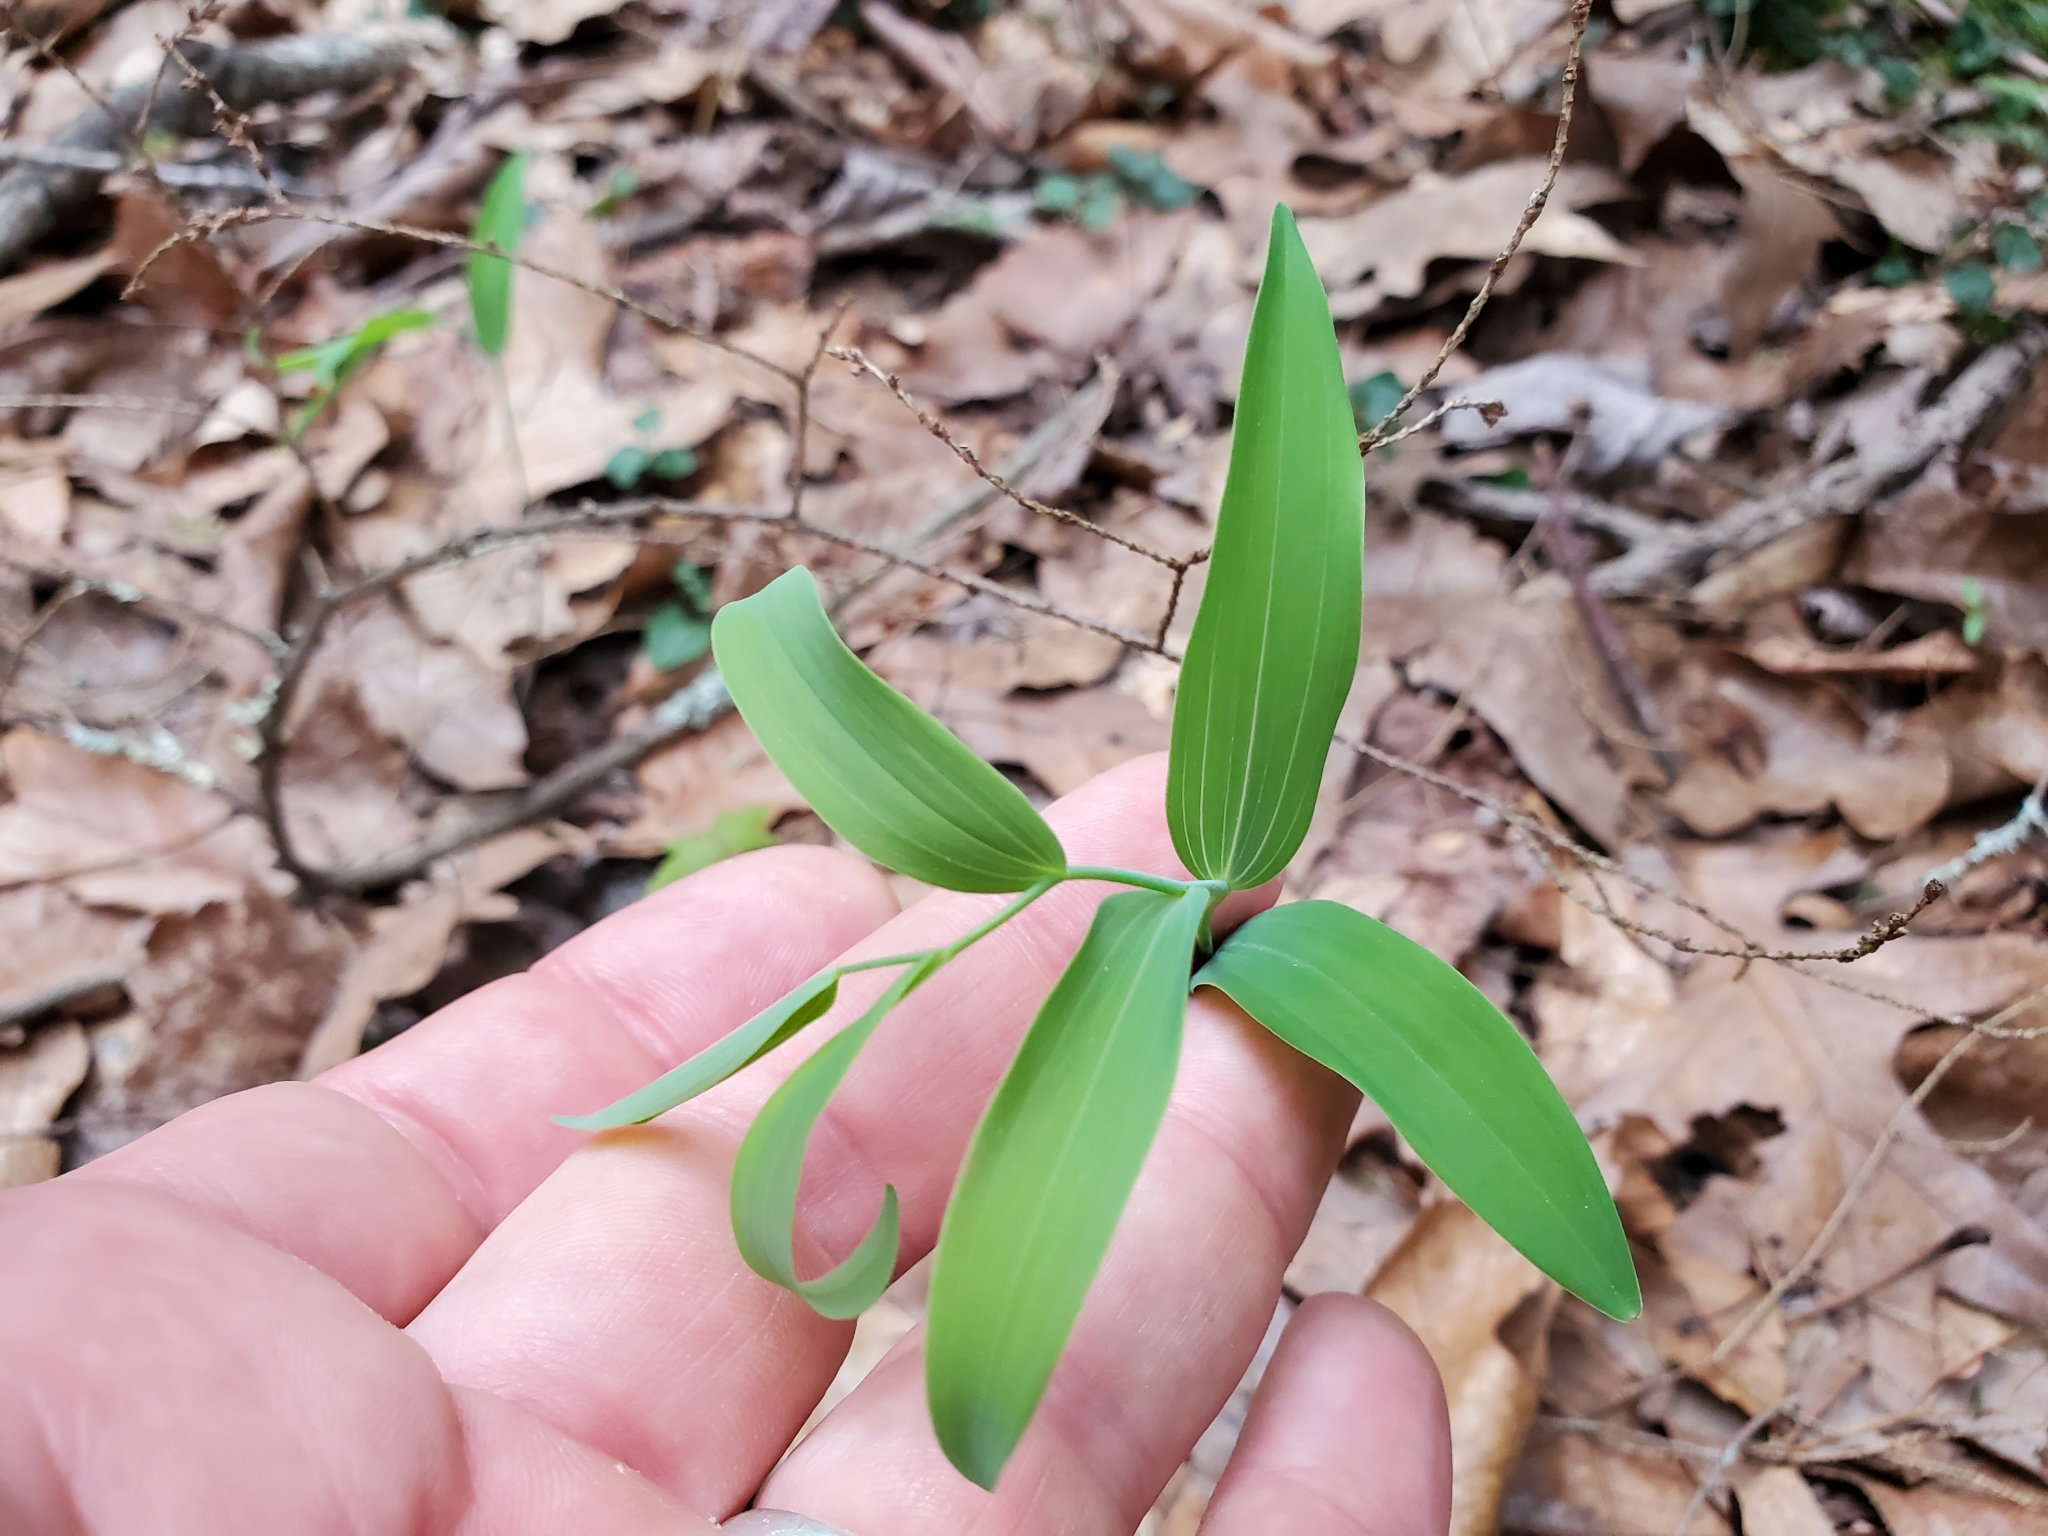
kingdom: Plantae
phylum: Tracheophyta
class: Liliopsida
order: Asparagales
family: Asparagaceae
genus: Polygonatum
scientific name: Polygonatum biflorum
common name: American solomon's-seal
